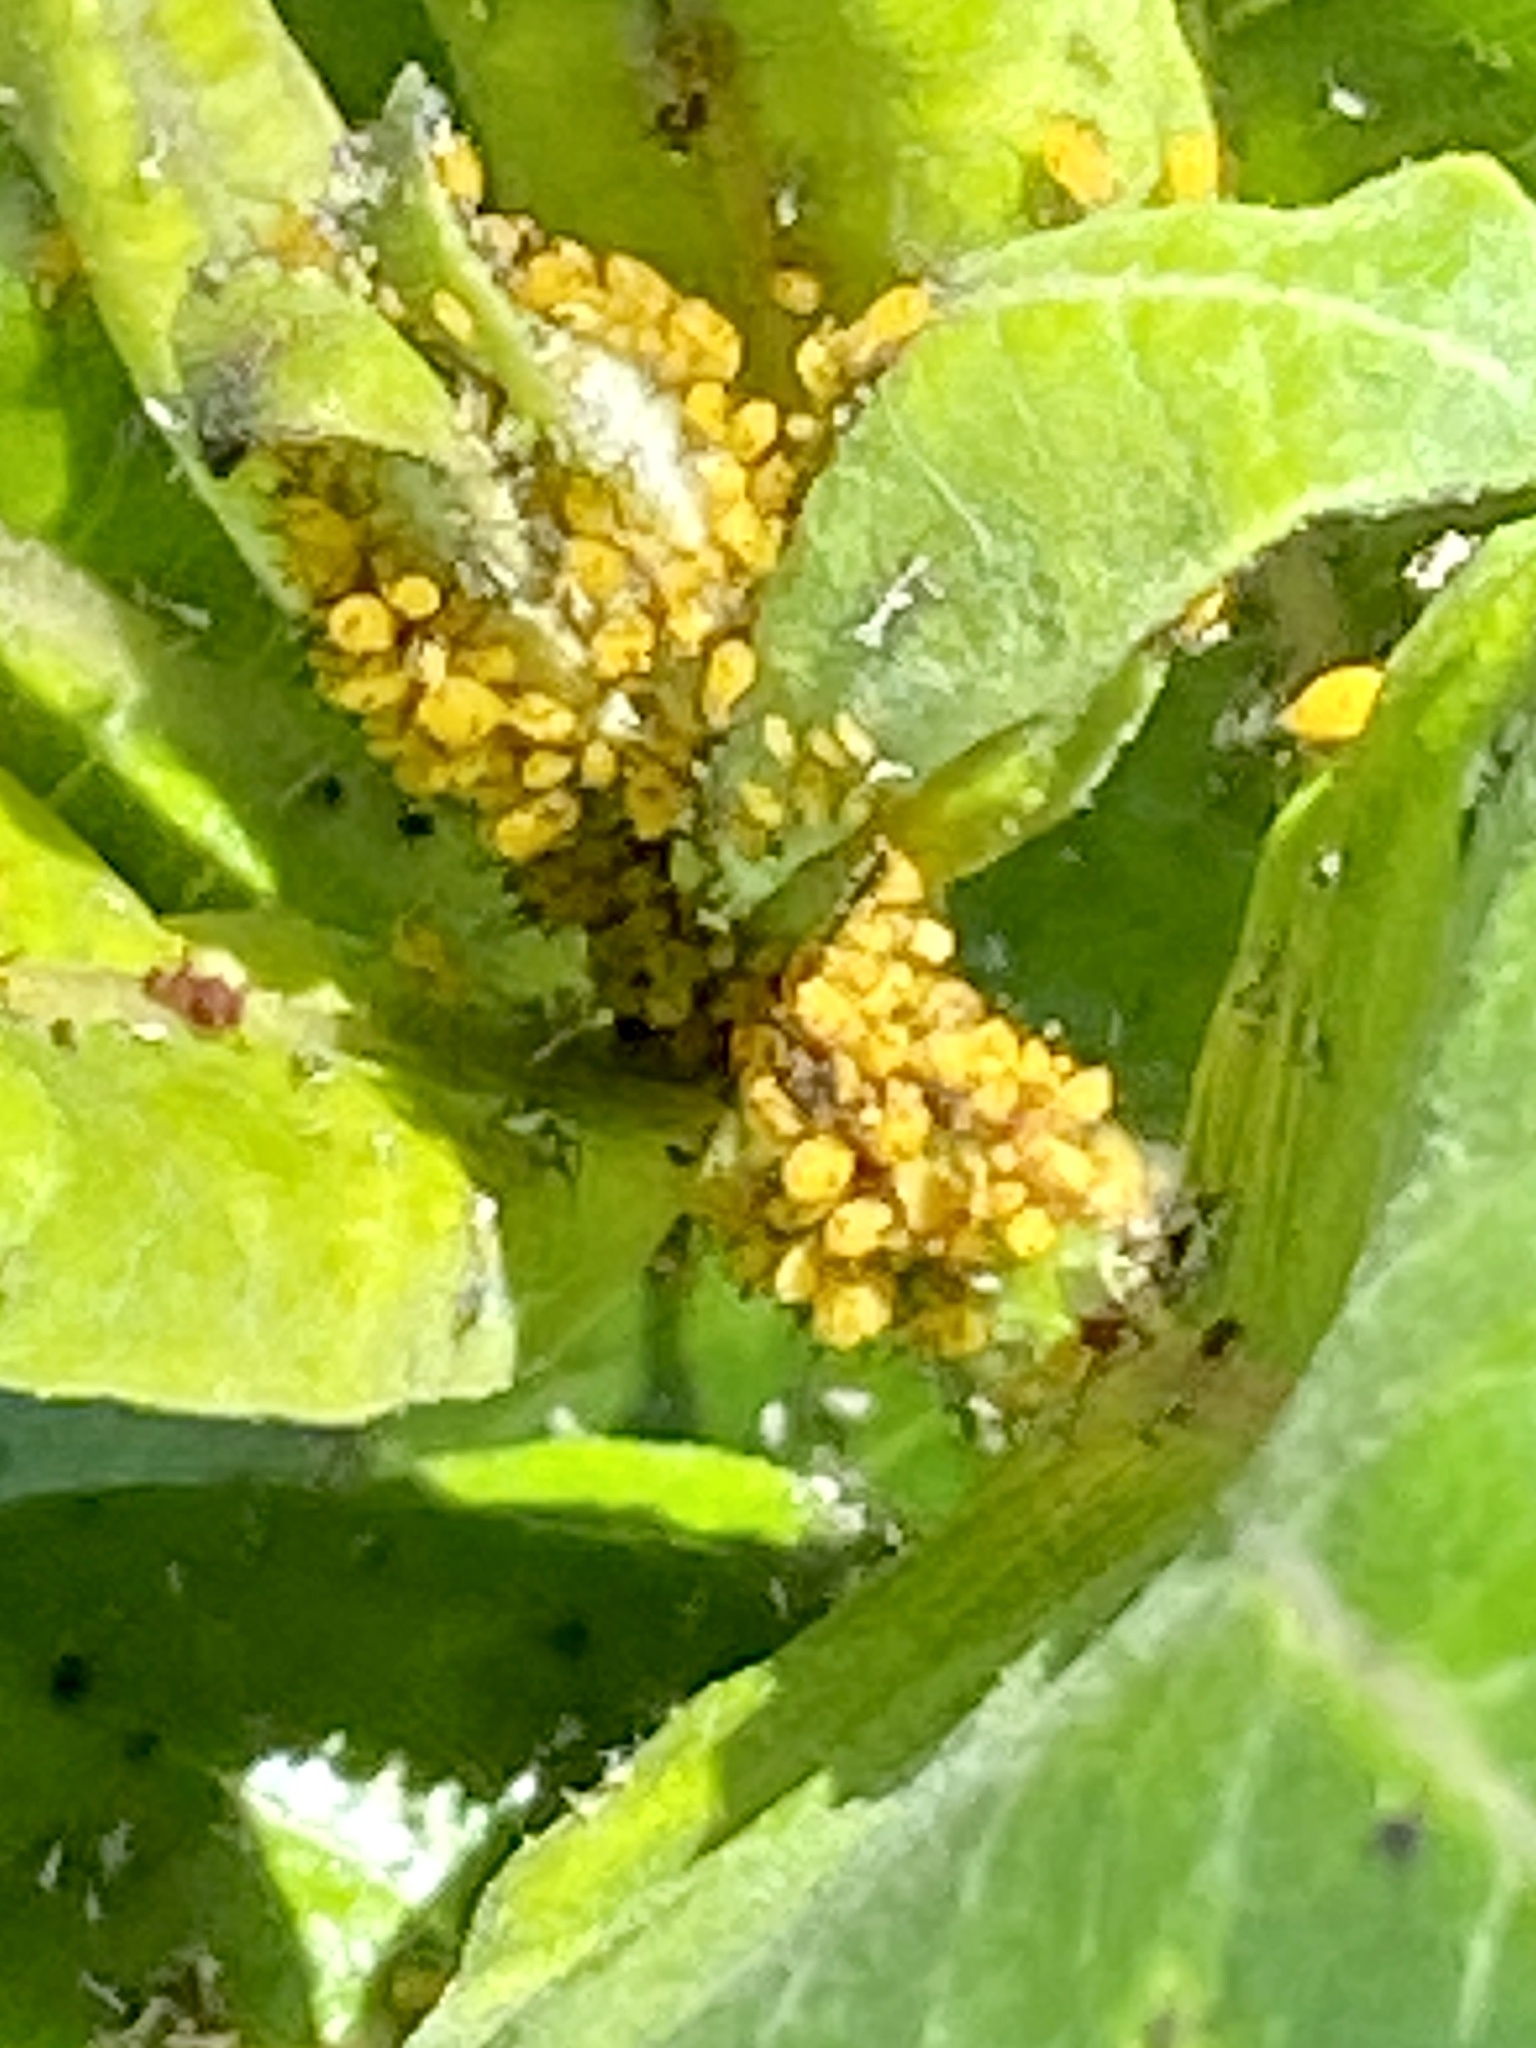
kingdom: Animalia
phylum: Arthropoda
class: Insecta
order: Hemiptera
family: Aphididae
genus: Aphis
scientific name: Aphis nerii
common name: Oleander aphid
